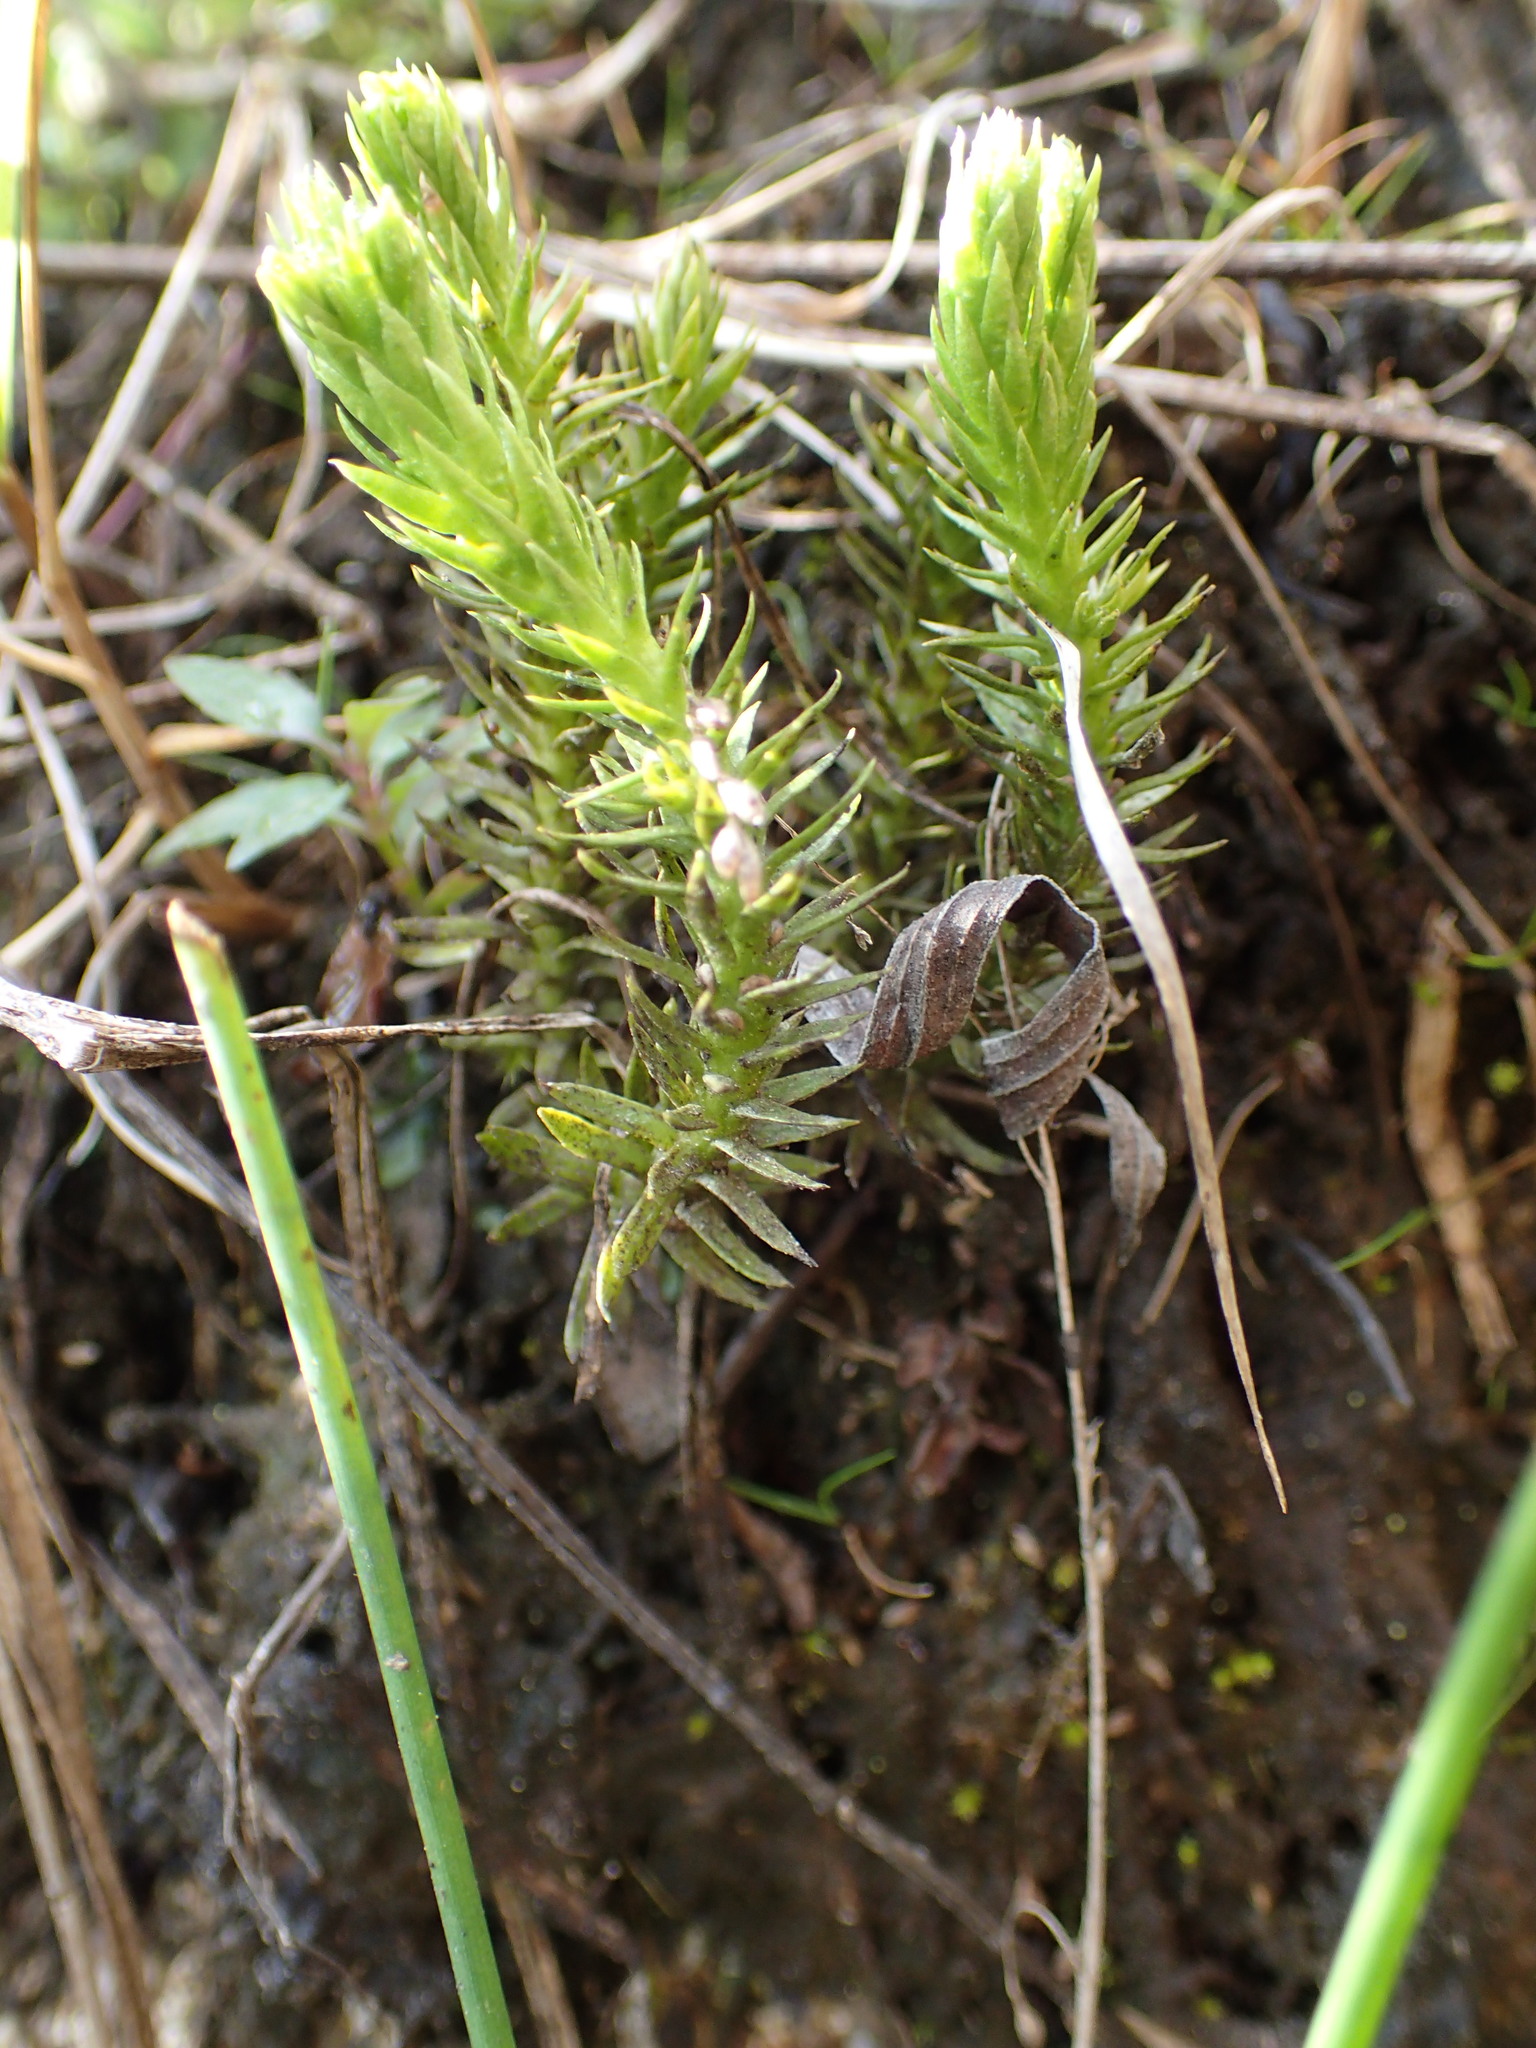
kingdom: Plantae
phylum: Tracheophyta
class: Lycopodiopsida
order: Lycopodiales
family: Lycopodiaceae
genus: Huperzia
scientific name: Huperzia selago
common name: Northern firmoss
